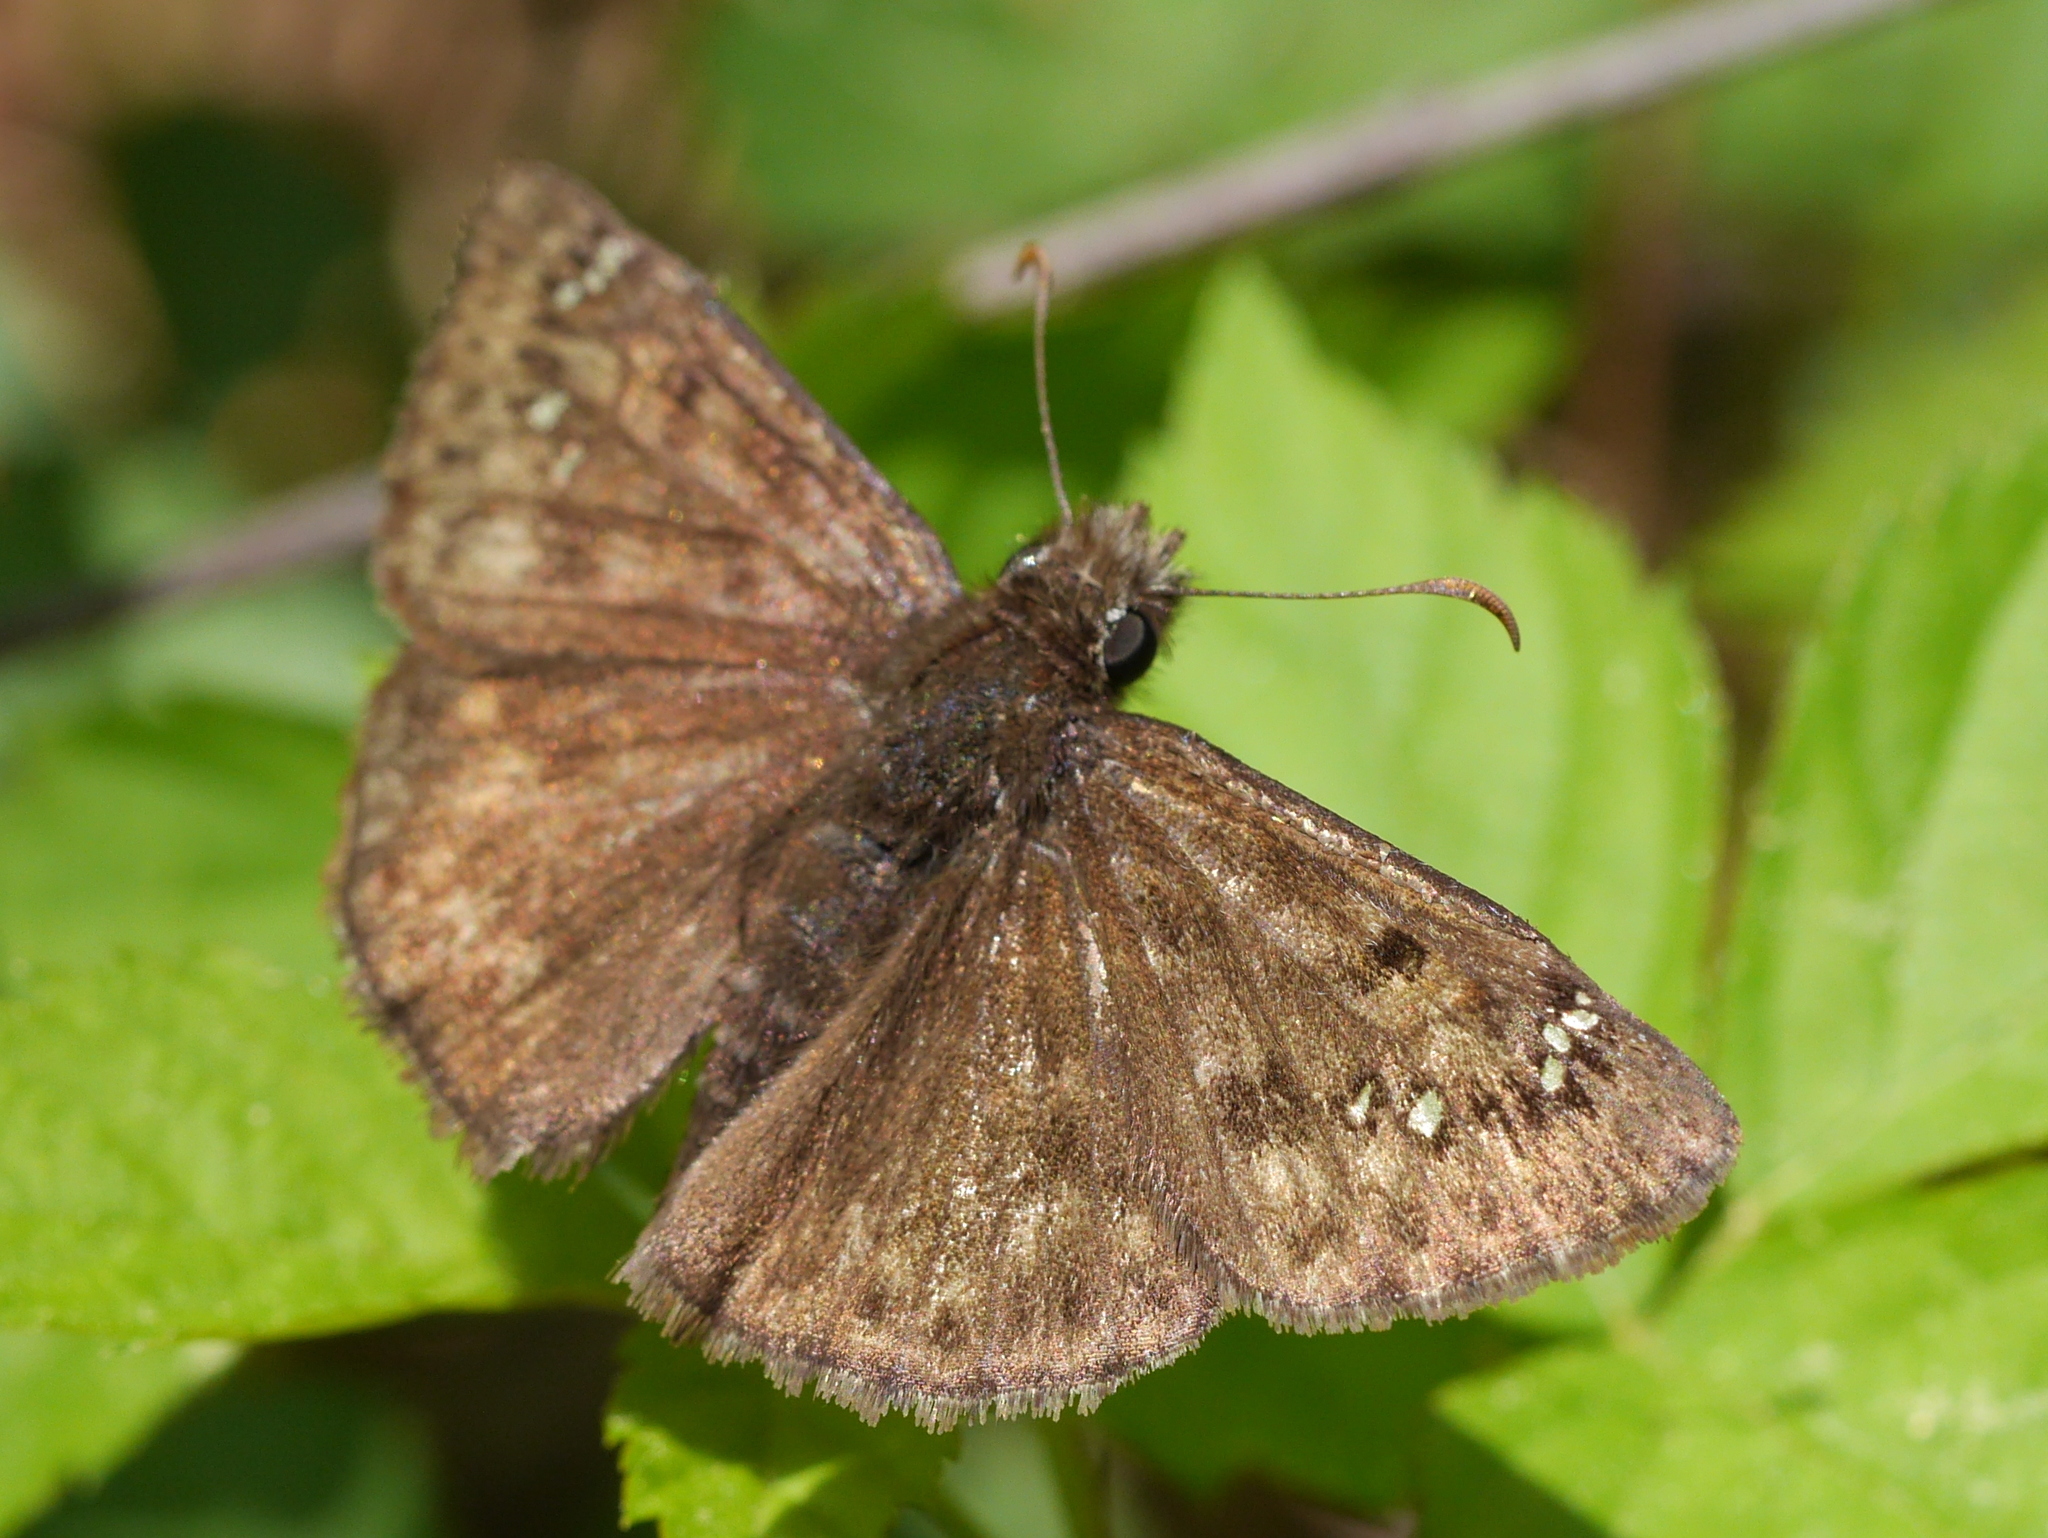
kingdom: Animalia
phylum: Arthropoda
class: Insecta
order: Lepidoptera
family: Hesperiidae
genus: Erynnis
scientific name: Erynnis juvenalis
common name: Juvenal's duskywing
